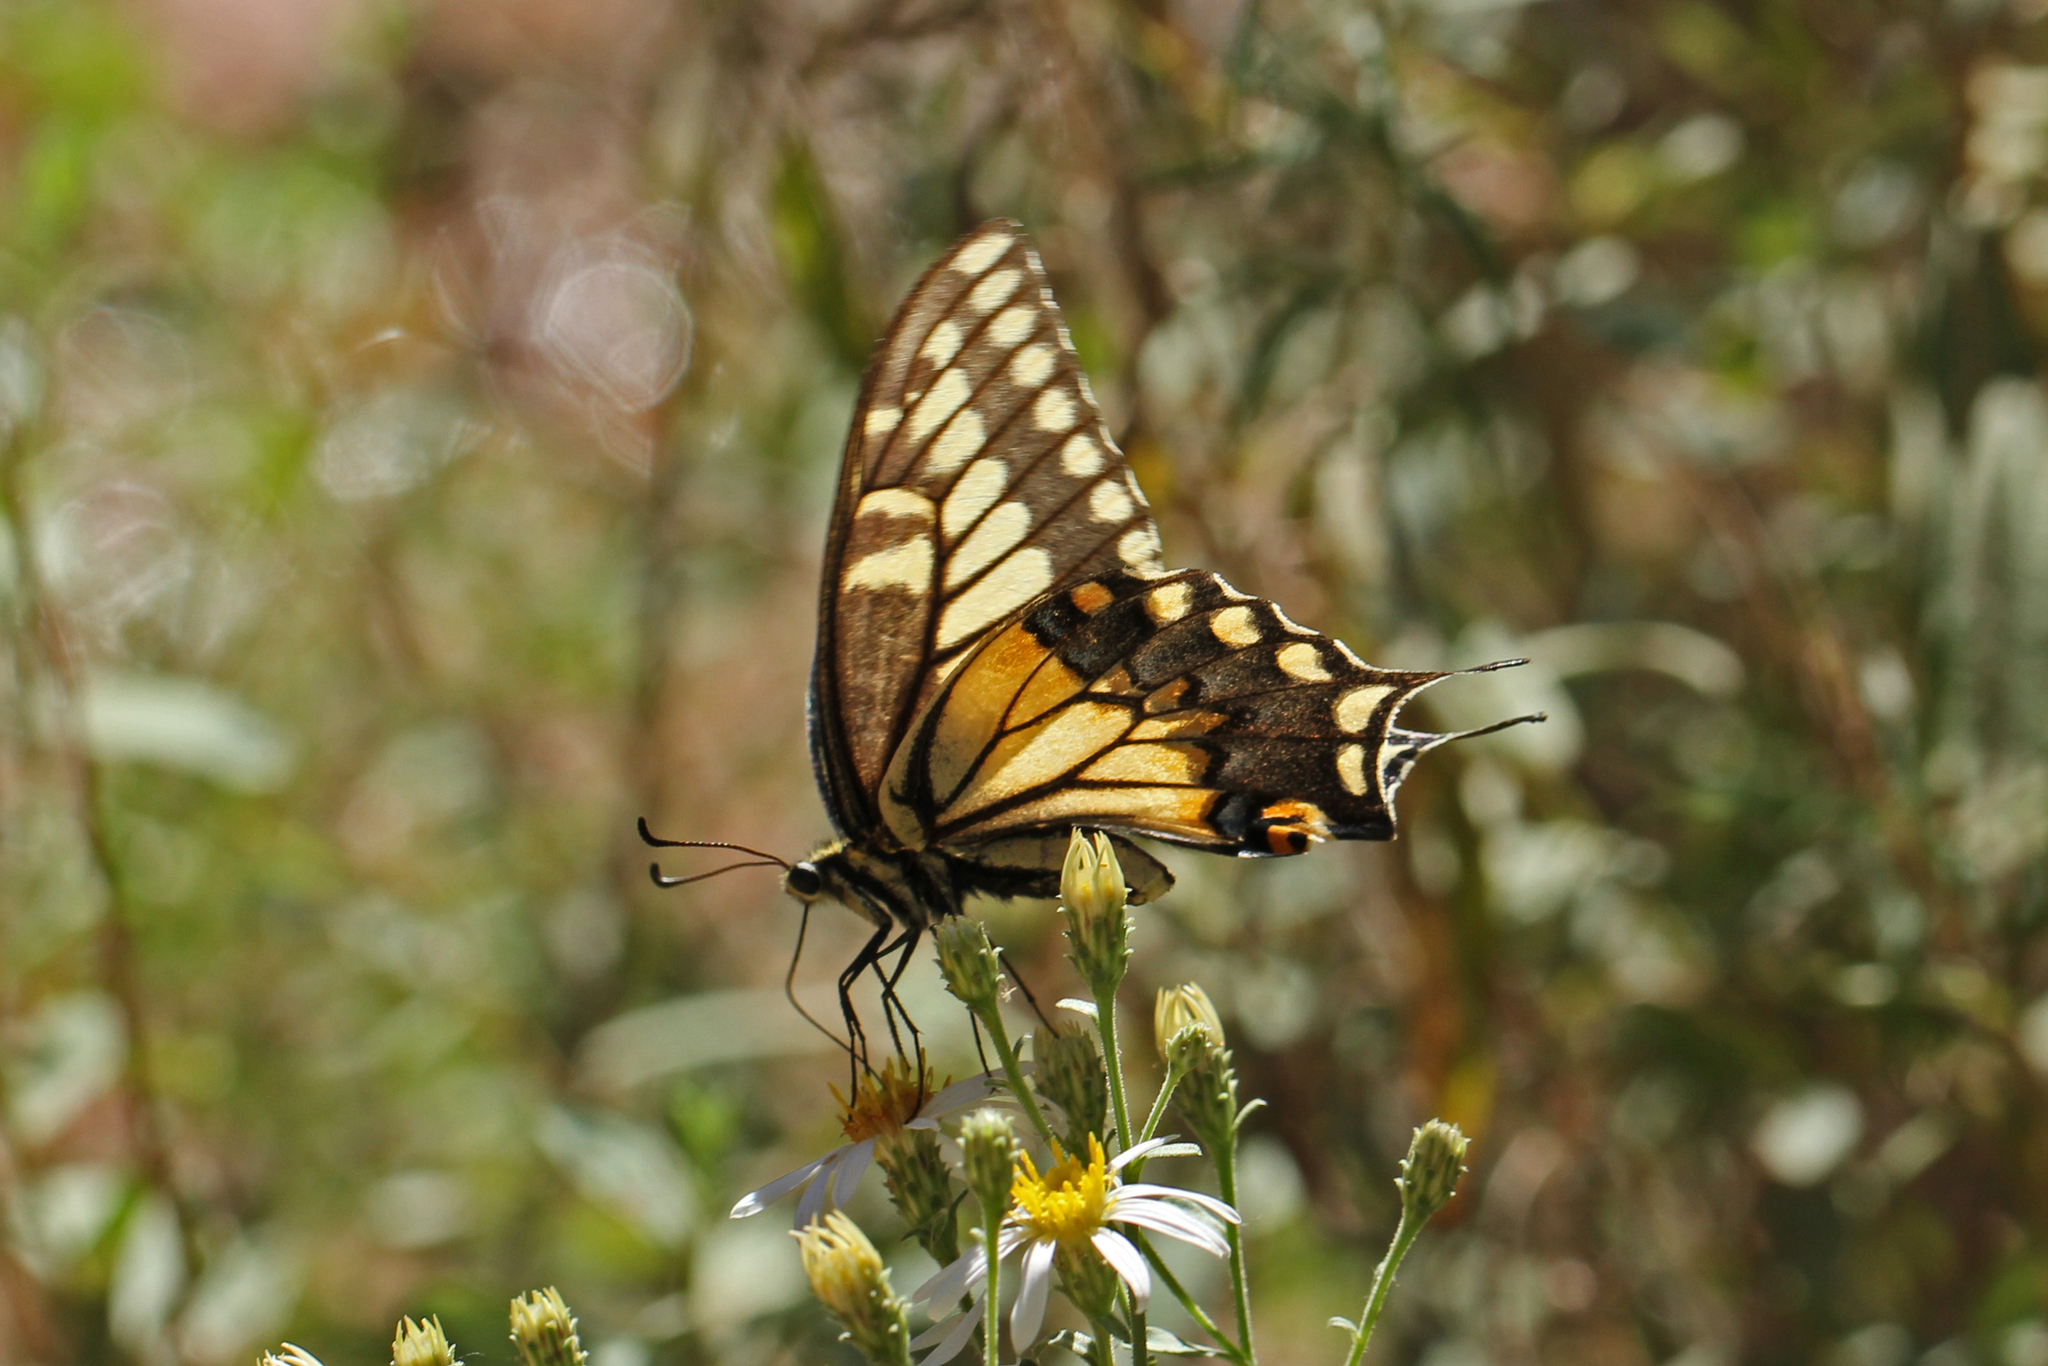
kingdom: Animalia
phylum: Arthropoda
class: Insecta
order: Lepidoptera
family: Papilionidae
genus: Papilio
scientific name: Papilio polyxenes
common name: Black swallowtail
